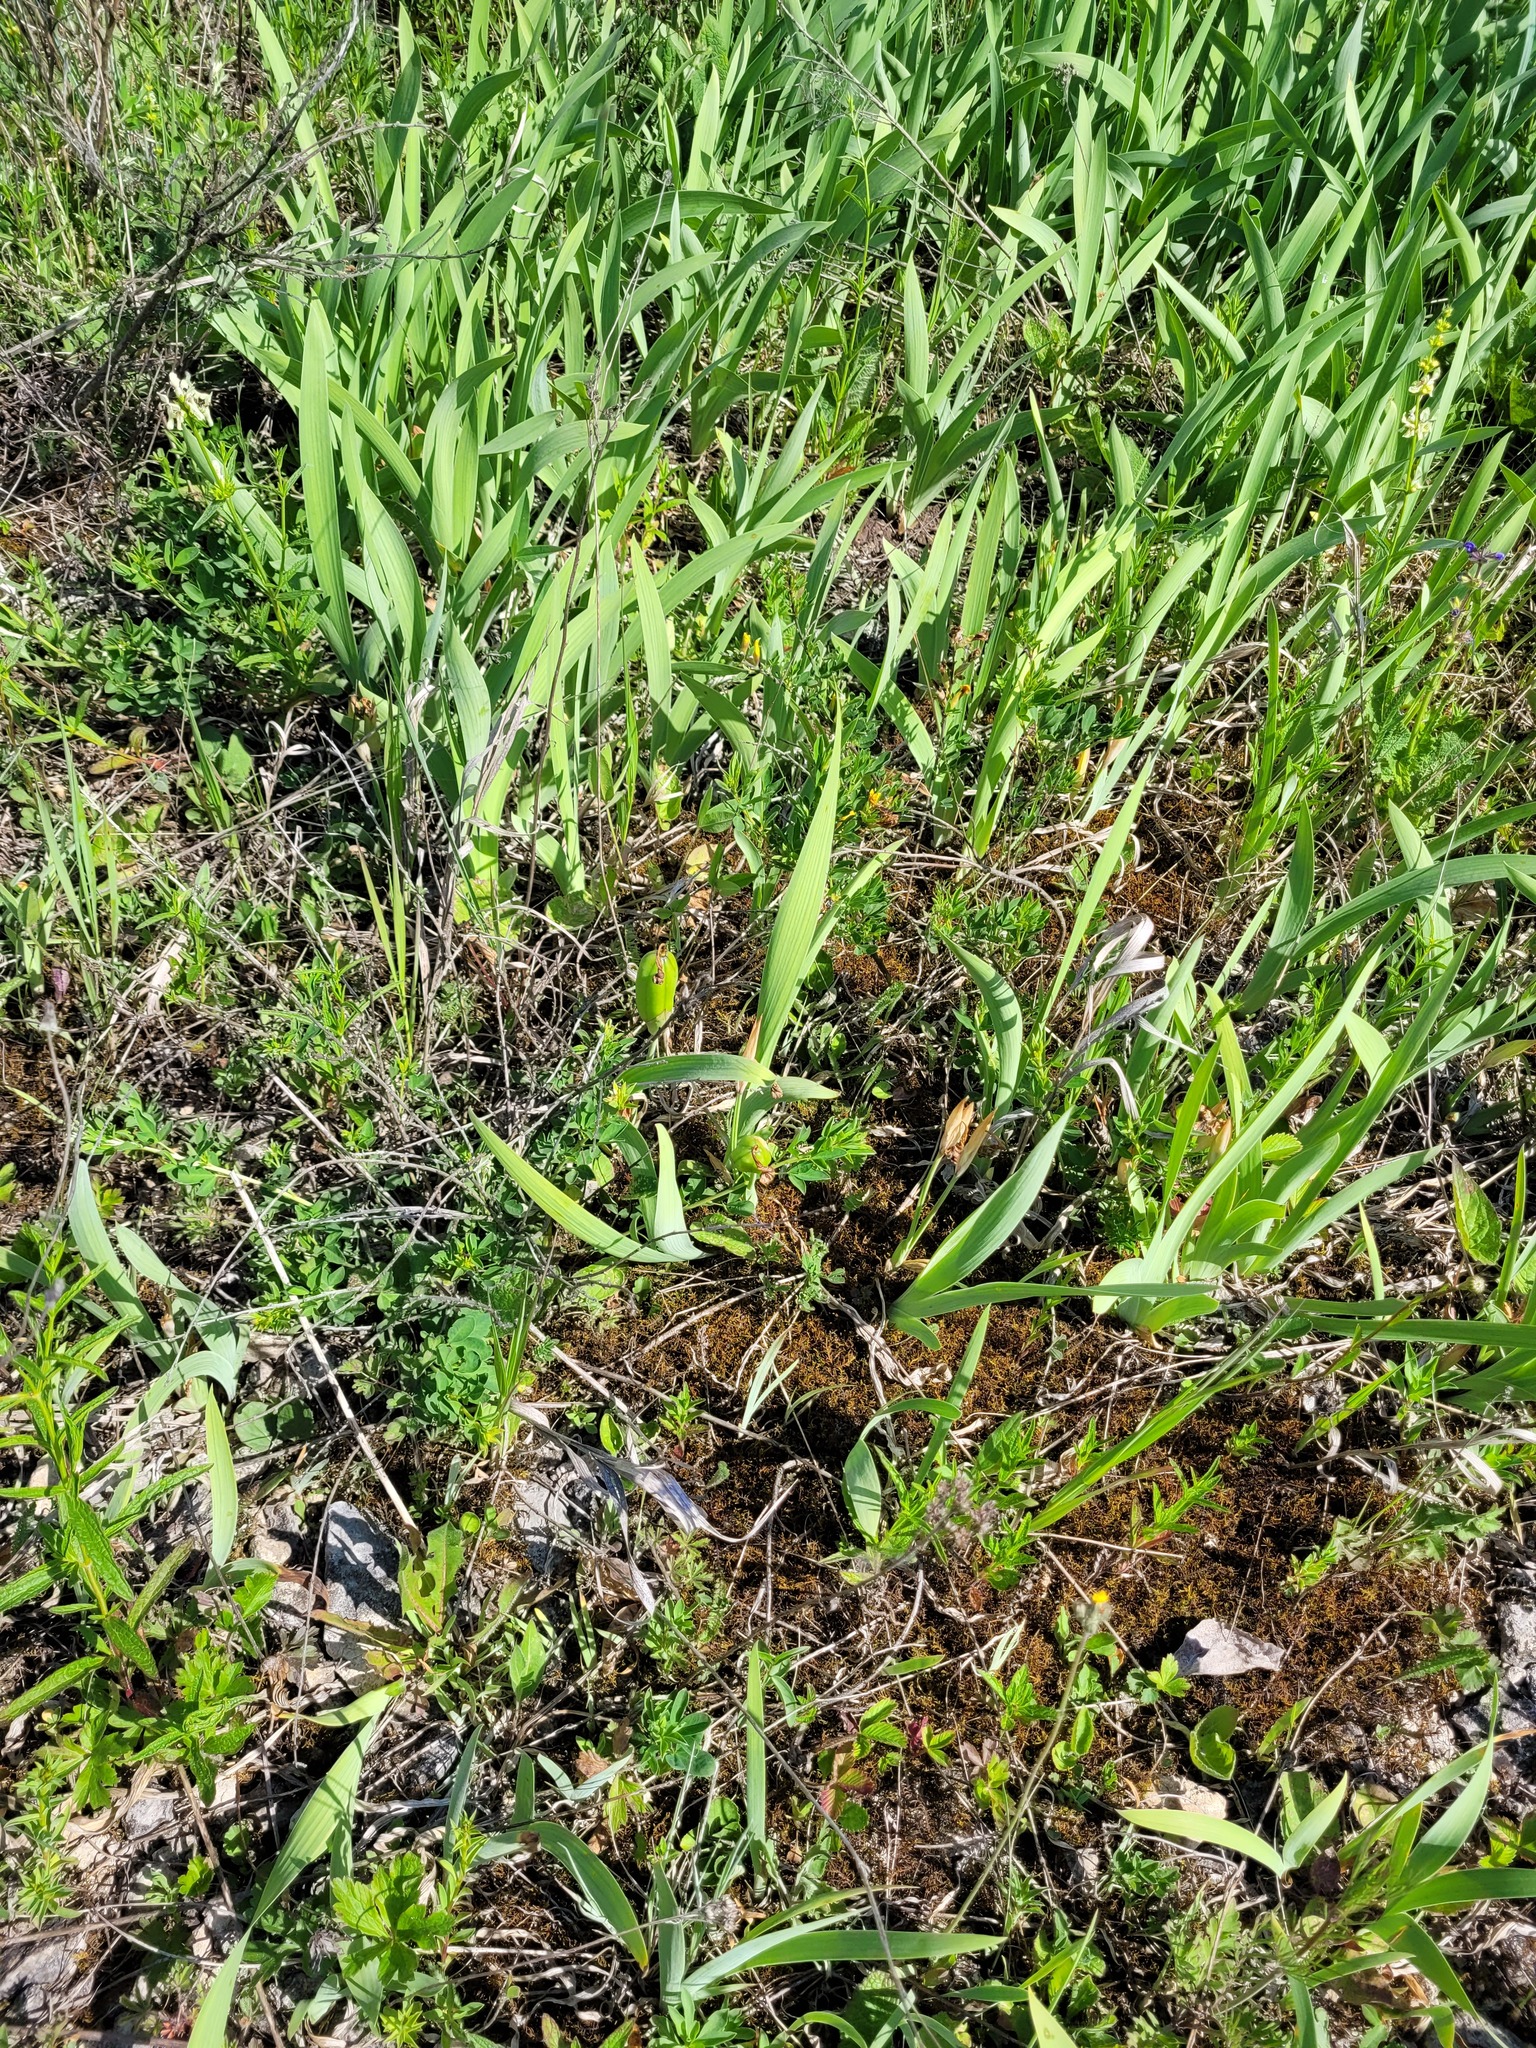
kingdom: Plantae
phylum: Tracheophyta
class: Liliopsida
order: Asparagales
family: Iridaceae
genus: Iris
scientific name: Iris aphylla
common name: Stool iris
